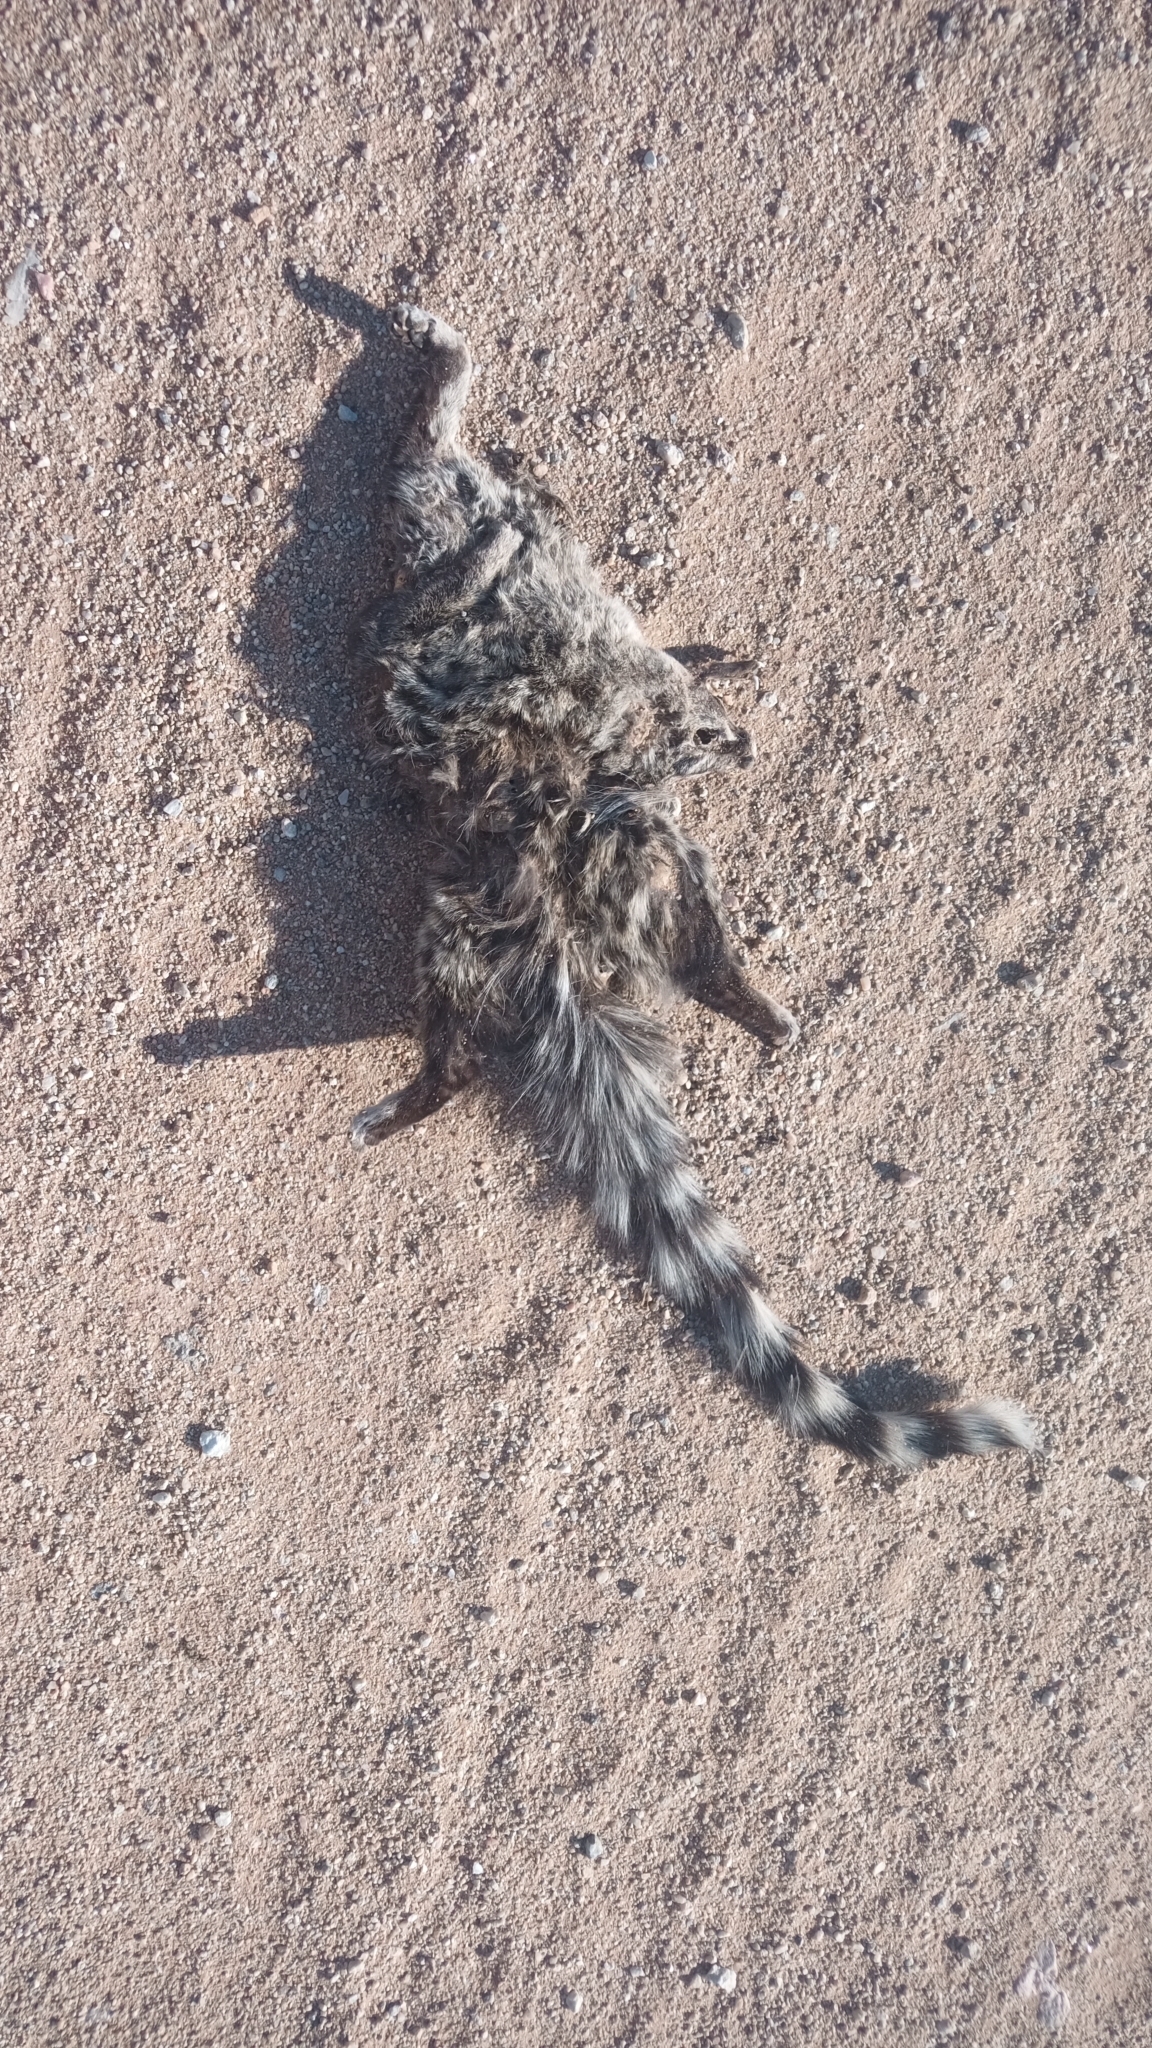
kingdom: Animalia
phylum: Chordata
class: Mammalia
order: Carnivora
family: Viverridae
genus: Genetta
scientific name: Genetta genetta
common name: Common genet
